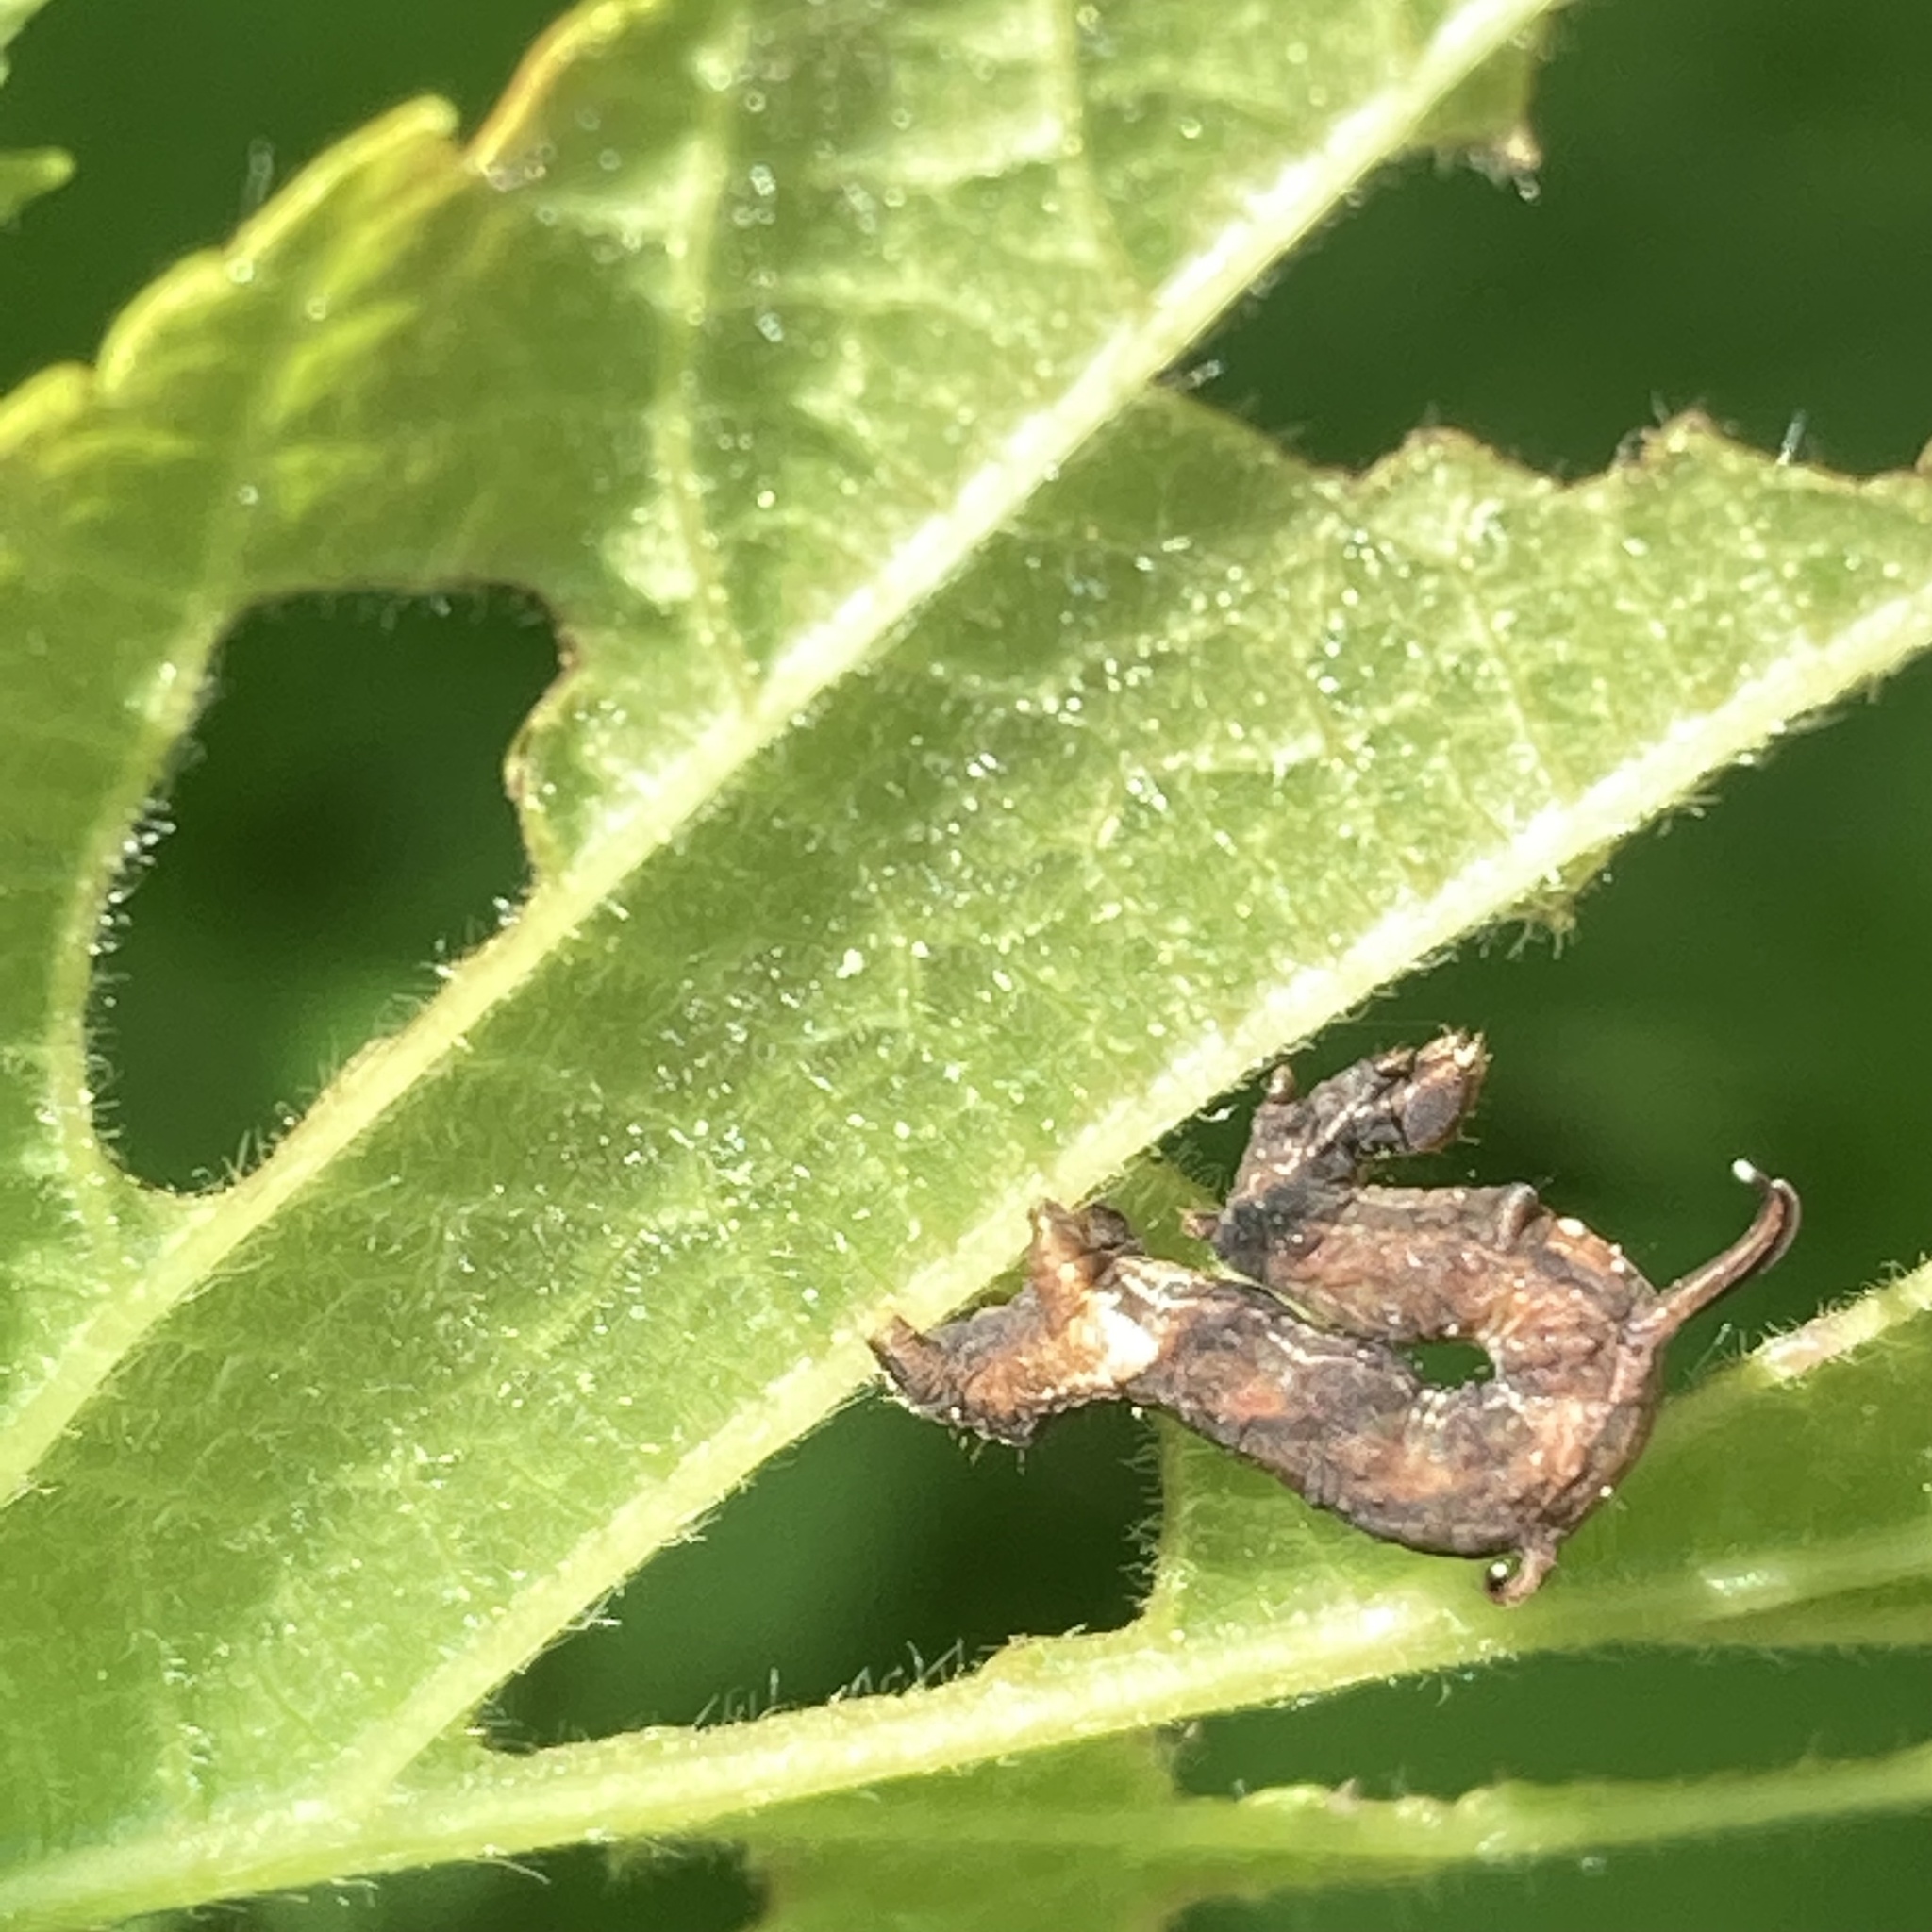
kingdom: Animalia
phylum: Arthropoda
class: Insecta
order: Lepidoptera
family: Geometridae
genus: Nematocampa
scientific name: Nematocampa resistaria
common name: Horned spanworm moth
